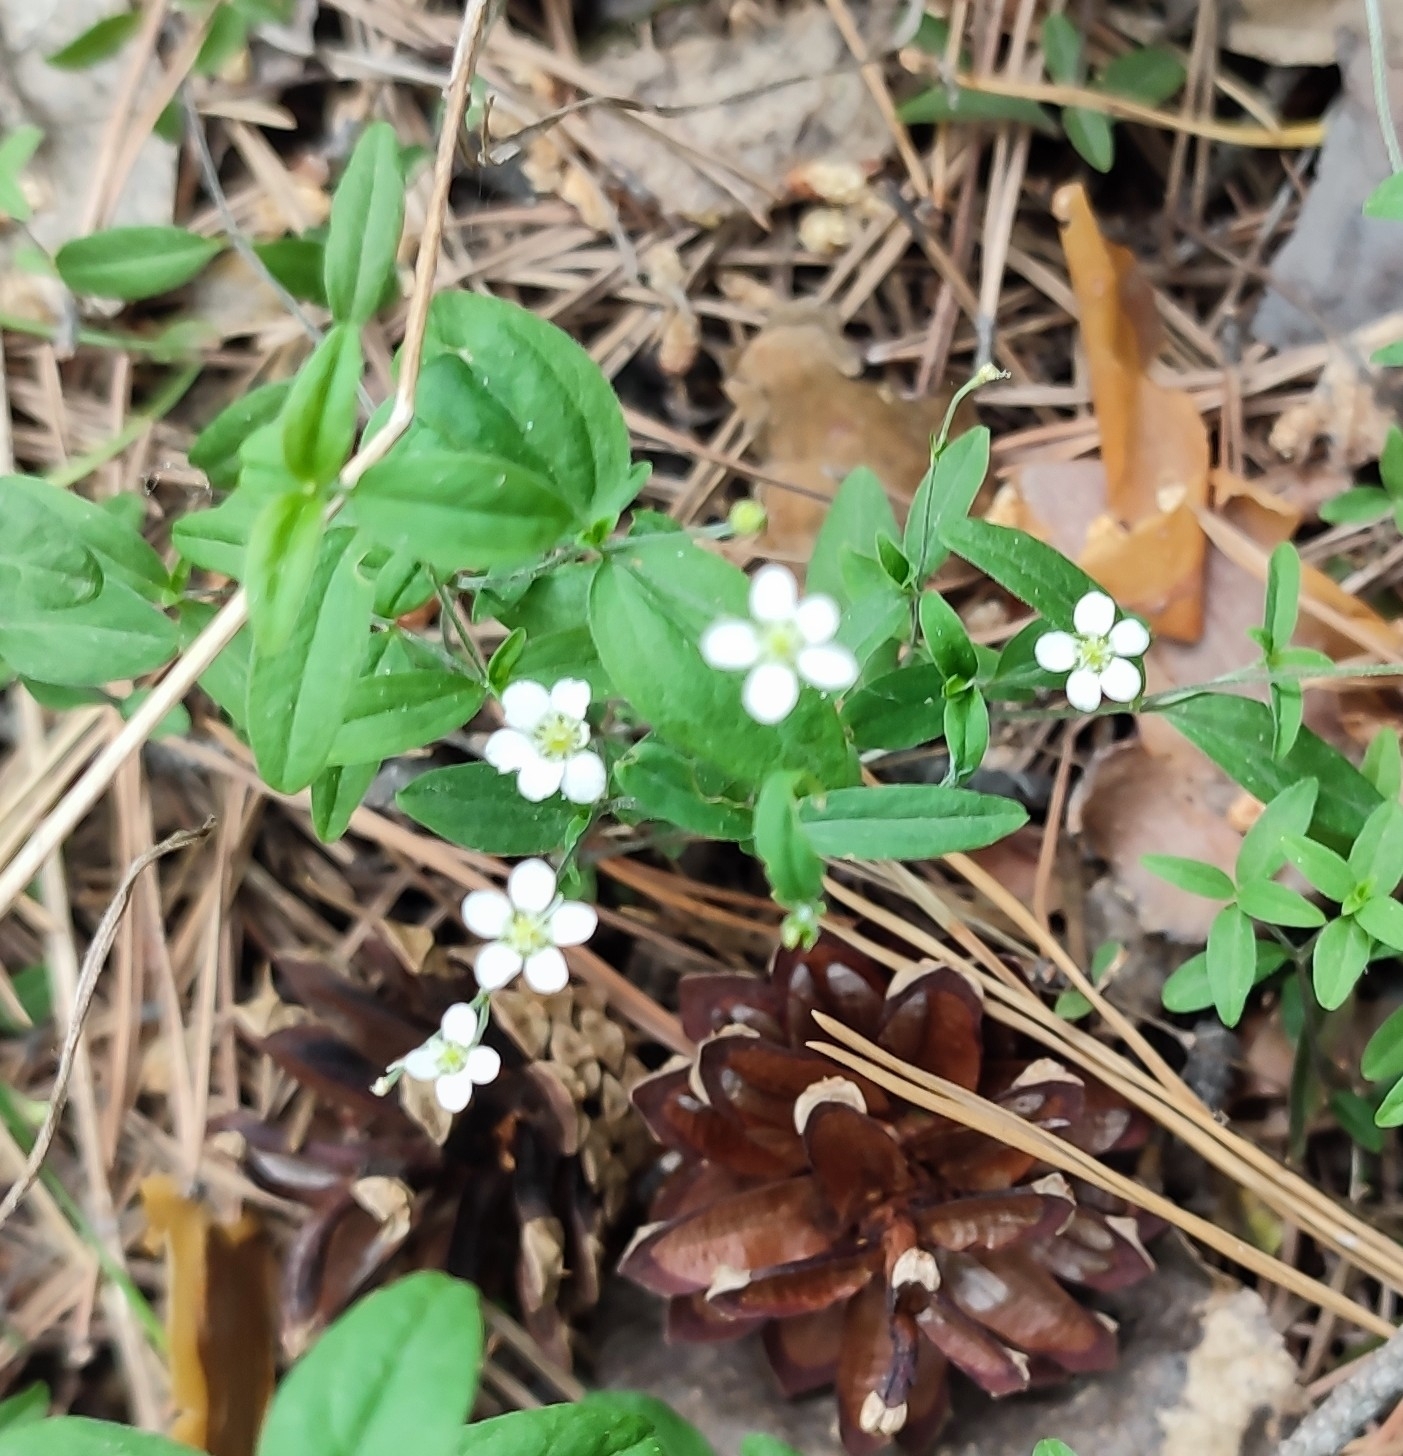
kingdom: Plantae
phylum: Tracheophyta
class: Magnoliopsida
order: Caryophyllales
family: Caryophyllaceae
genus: Moehringia
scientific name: Moehringia lateriflora
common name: Blunt-leaved sandwort
